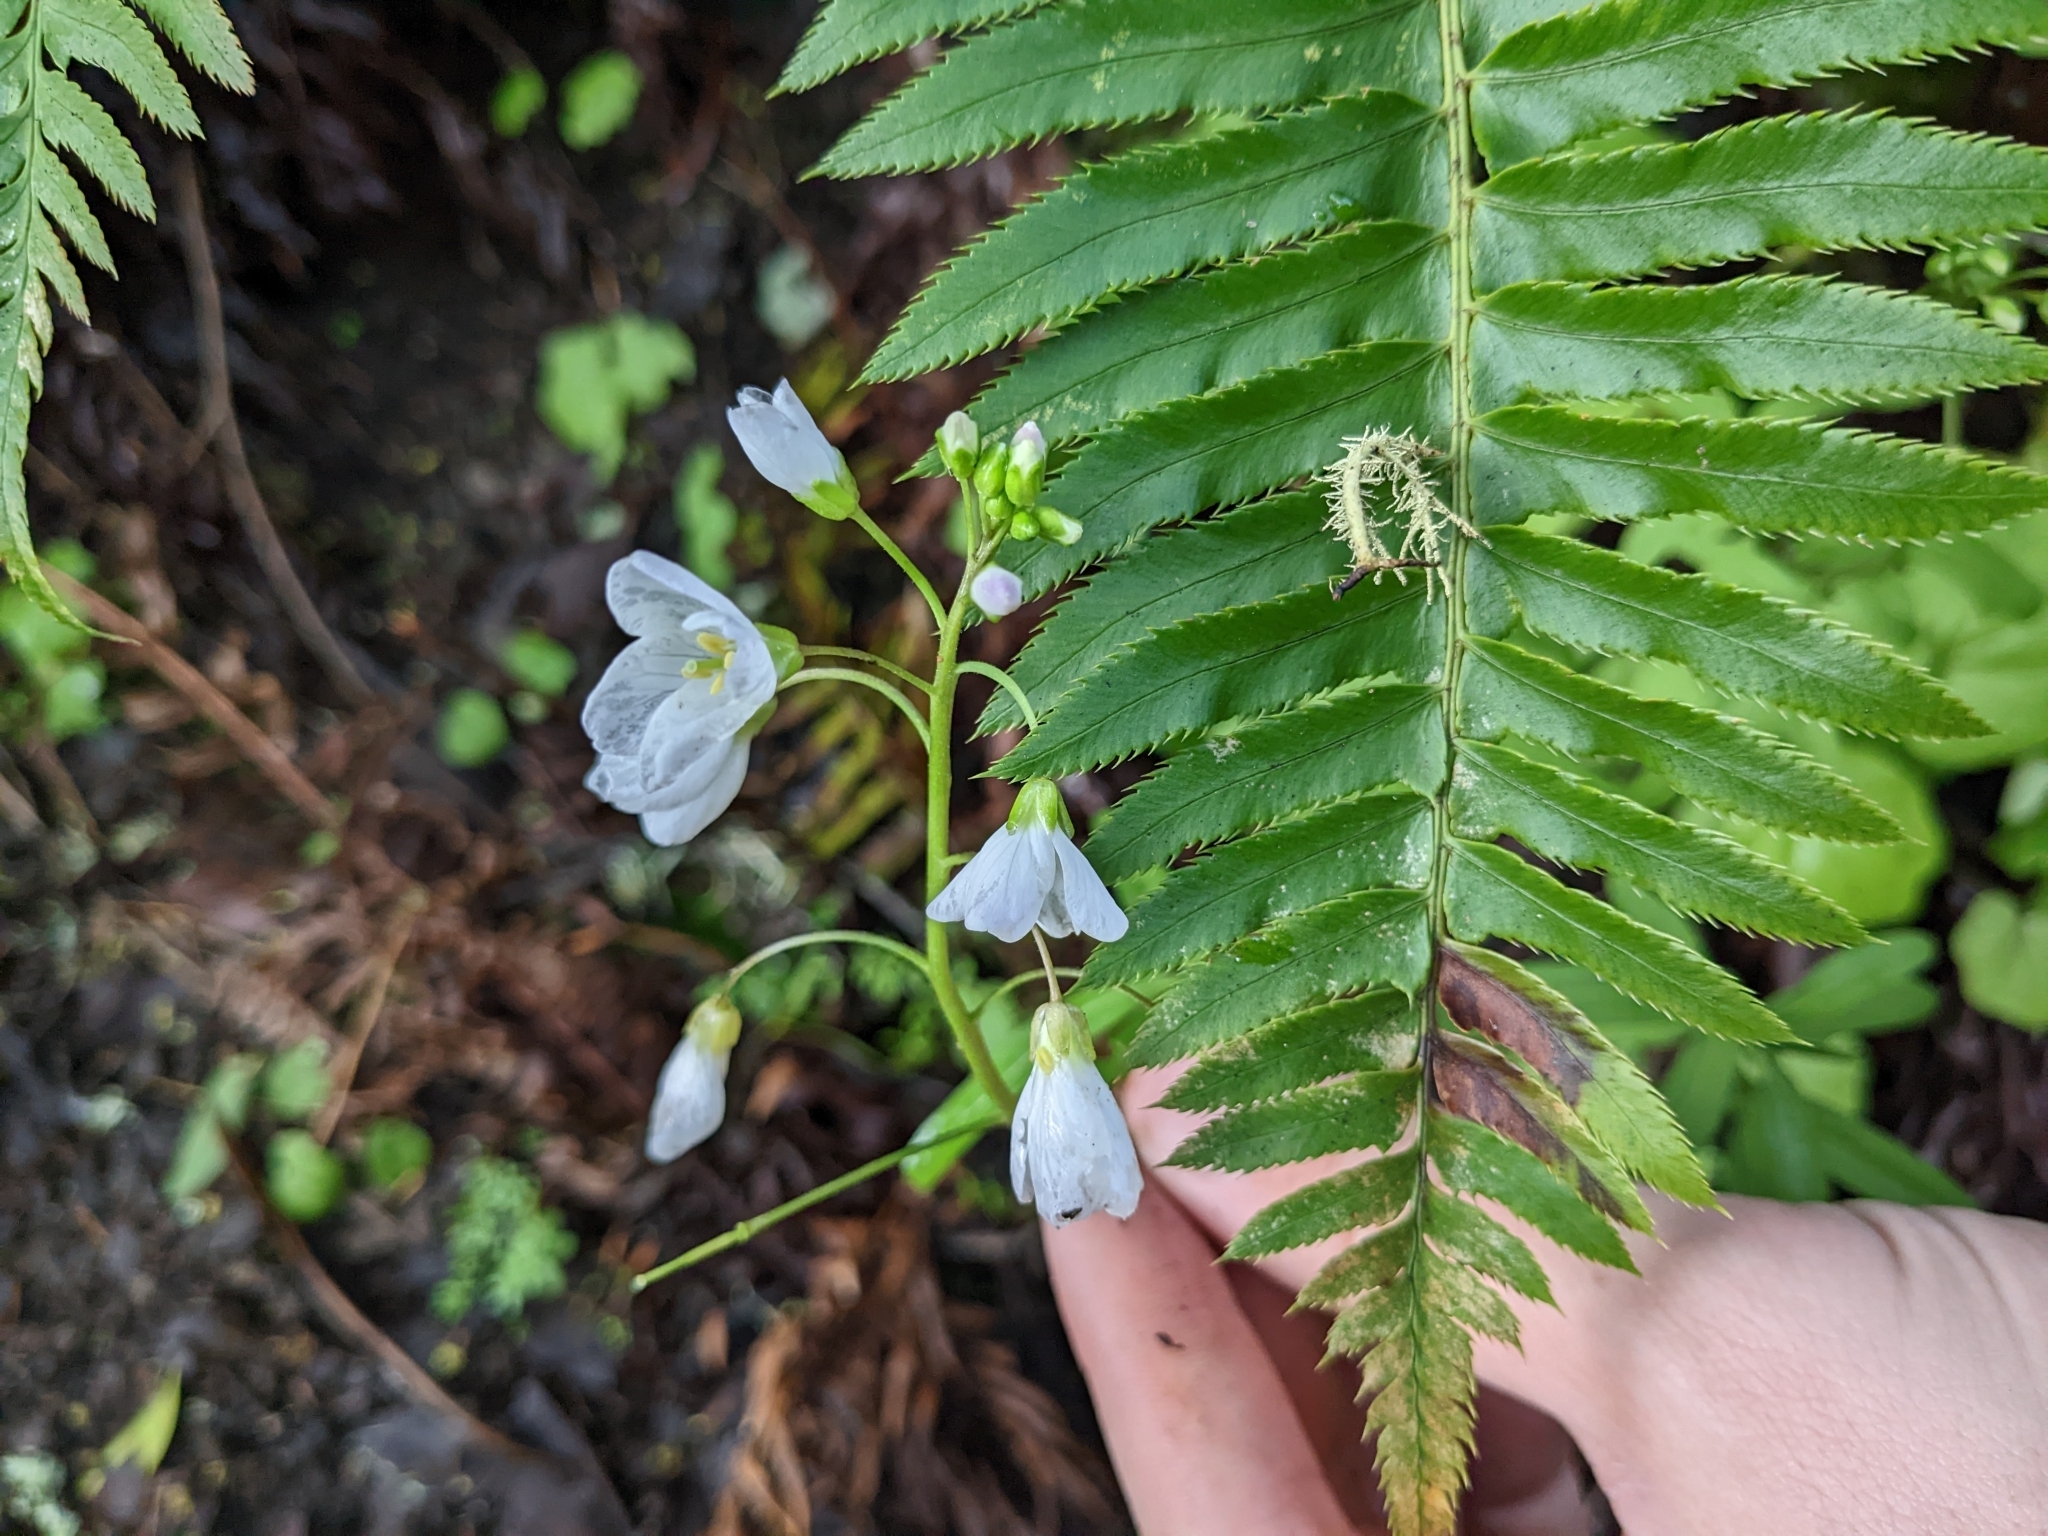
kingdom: Plantae
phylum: Tracheophyta
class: Magnoliopsida
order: Brassicales
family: Brassicaceae
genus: Cardamine
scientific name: Cardamine californica
